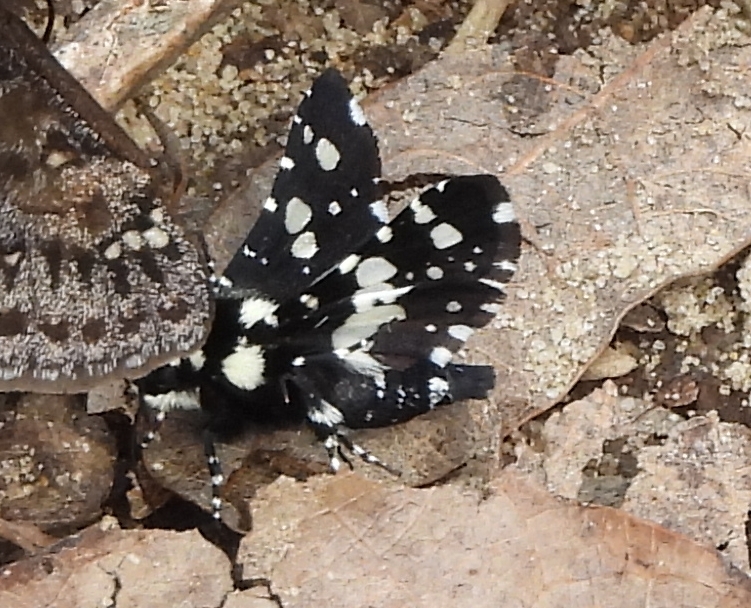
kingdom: Animalia
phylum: Arthropoda
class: Insecta
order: Lepidoptera
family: Thyrididae
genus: Pseudothyris
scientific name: Pseudothyris sepulchralis
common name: Mournful thyris moth
